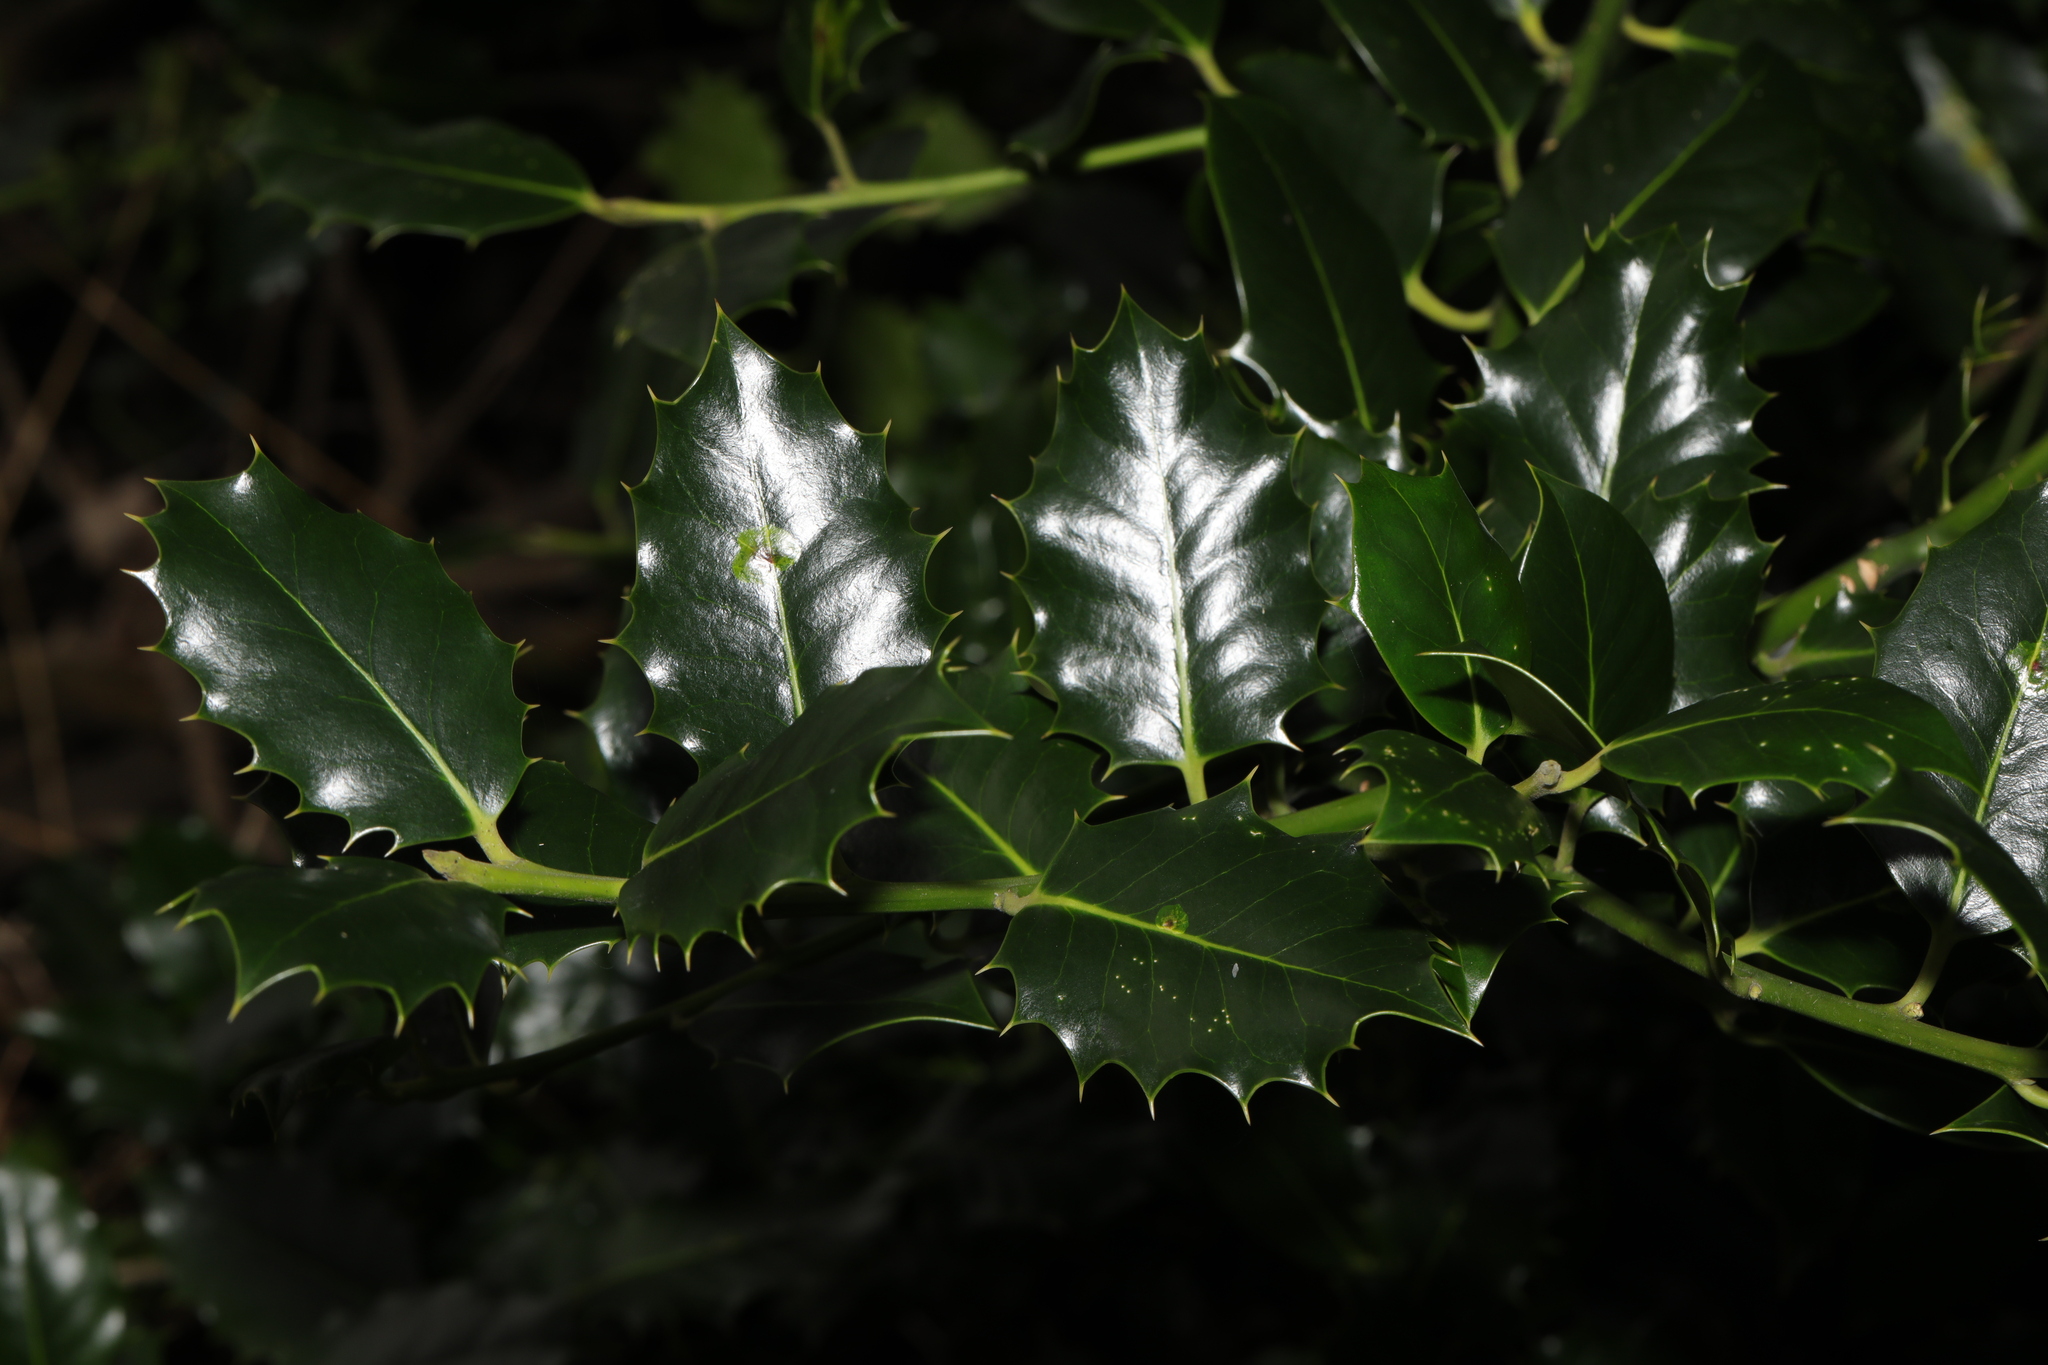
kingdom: Plantae
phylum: Tracheophyta
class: Magnoliopsida
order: Aquifoliales
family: Aquifoliaceae
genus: Ilex
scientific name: Ilex aquifolium
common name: English holly
